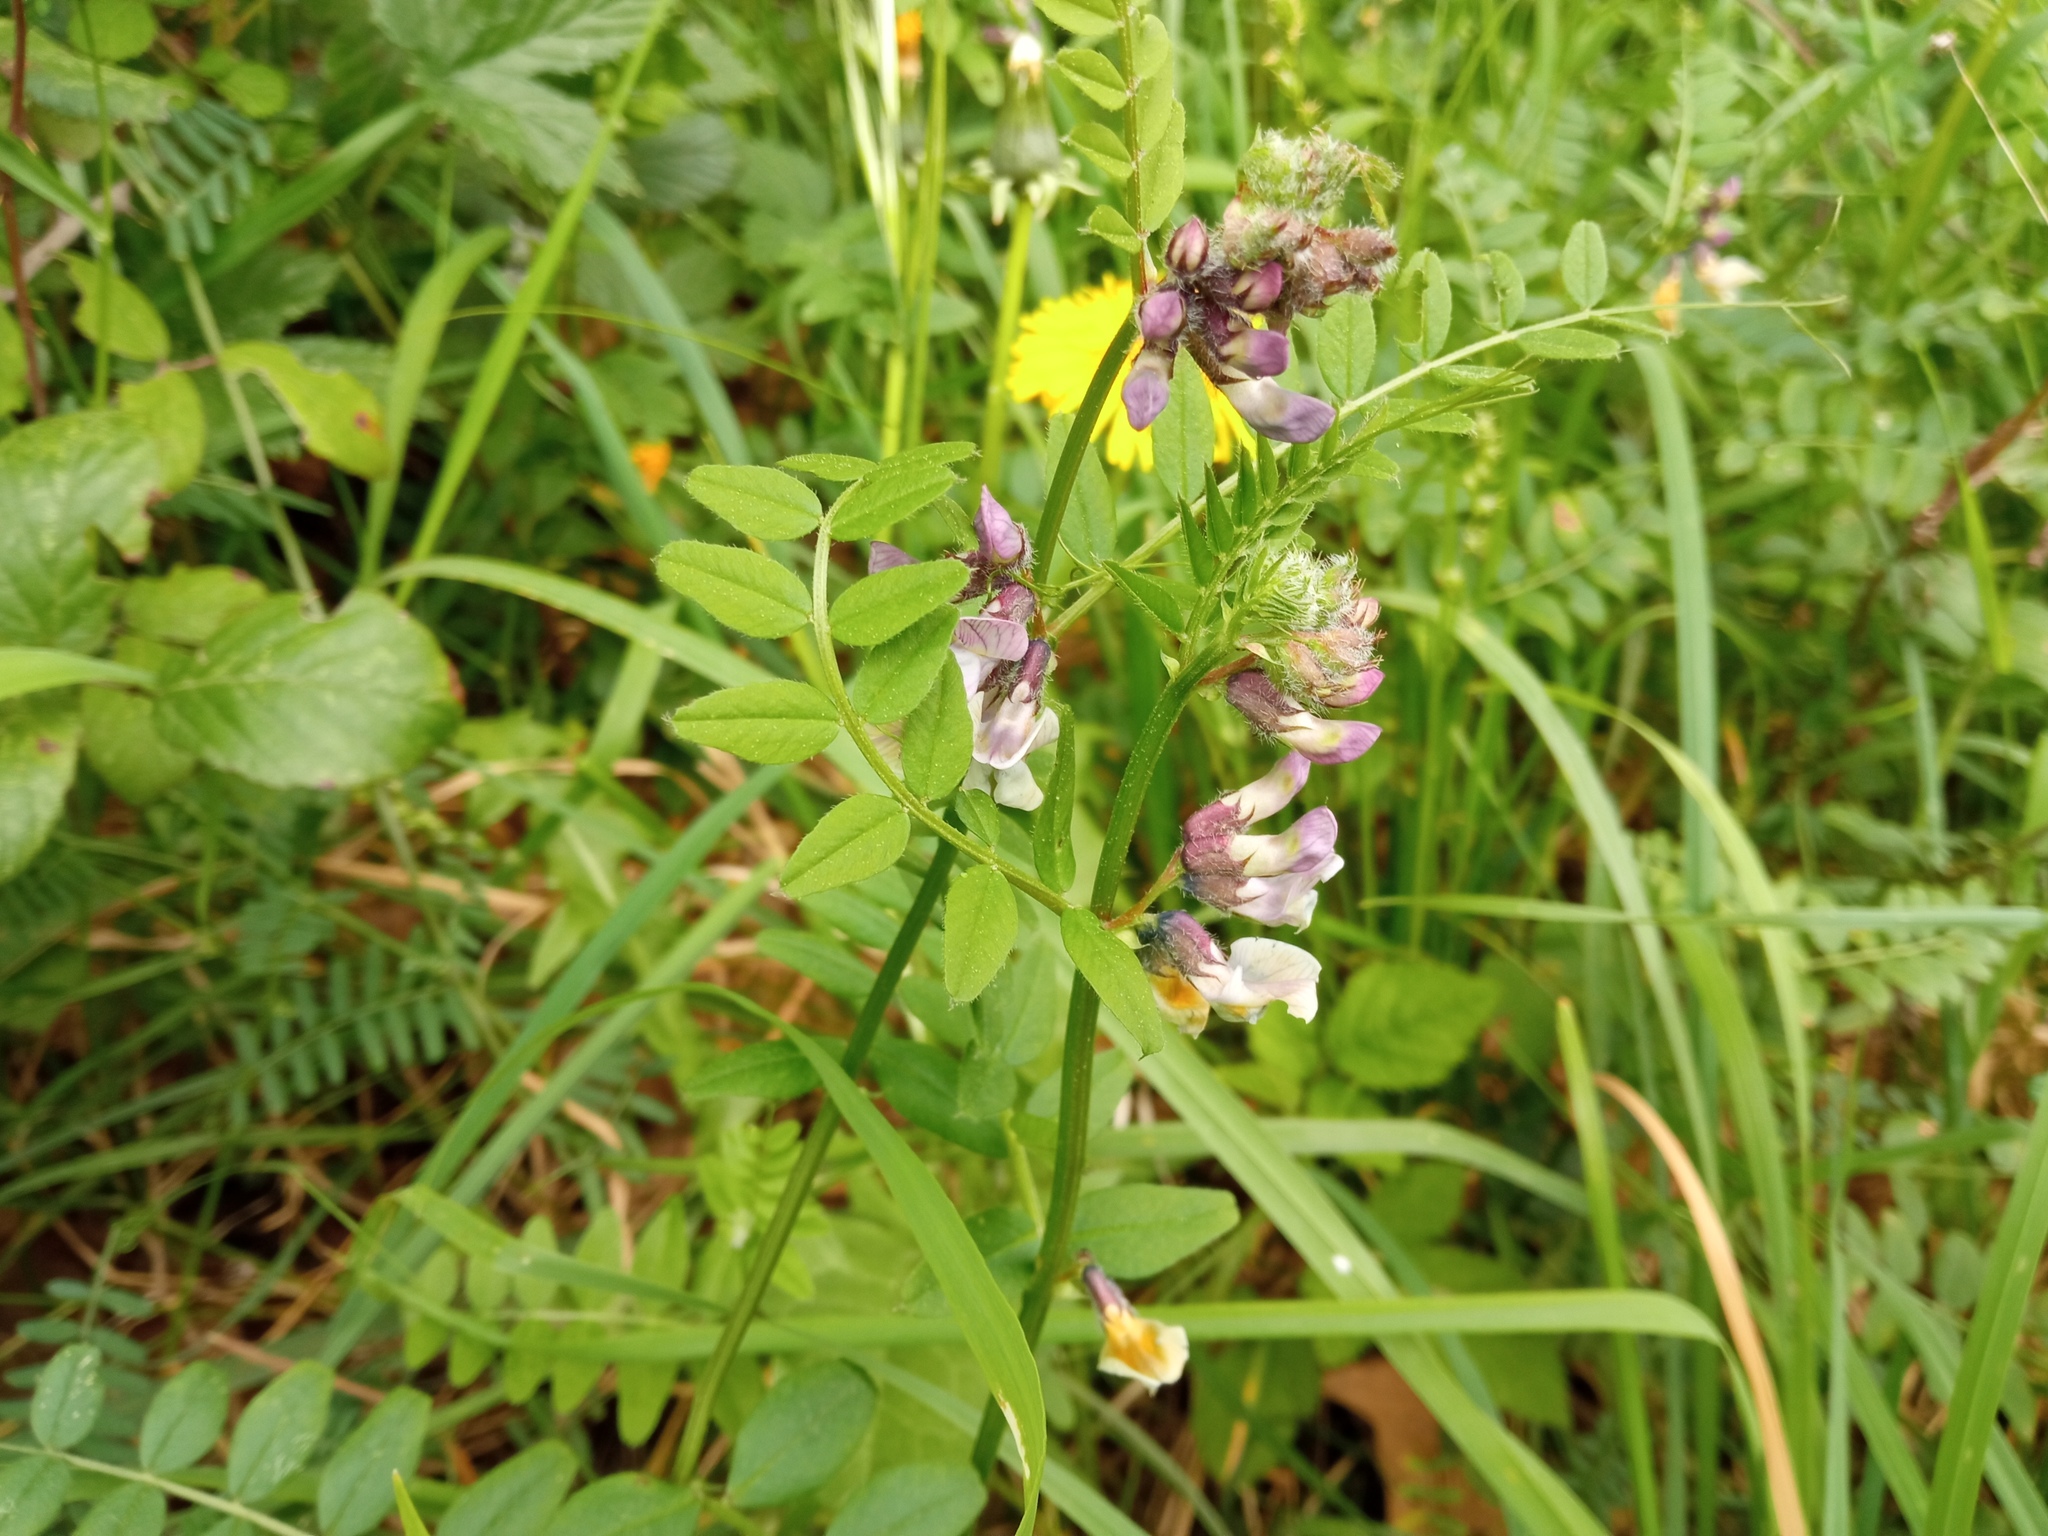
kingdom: Plantae
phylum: Tracheophyta
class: Magnoliopsida
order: Fabales
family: Fabaceae
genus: Vicia
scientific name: Vicia sepium
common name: Bush vetch
